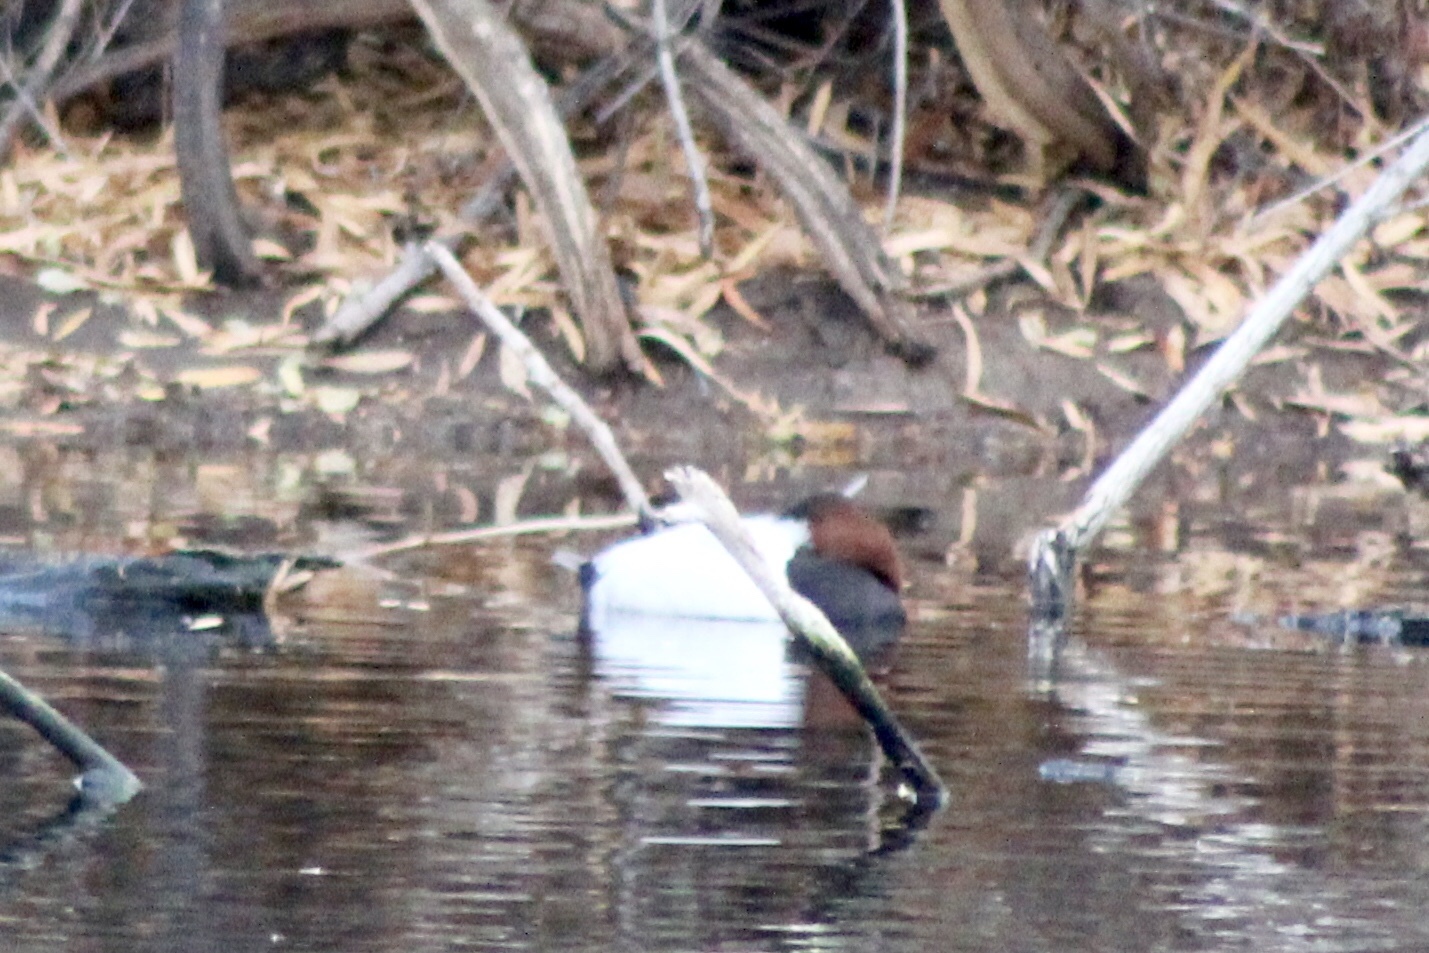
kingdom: Animalia
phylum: Chordata
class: Aves
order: Anseriformes
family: Anatidae
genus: Aythya
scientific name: Aythya valisineria
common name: Canvasback
